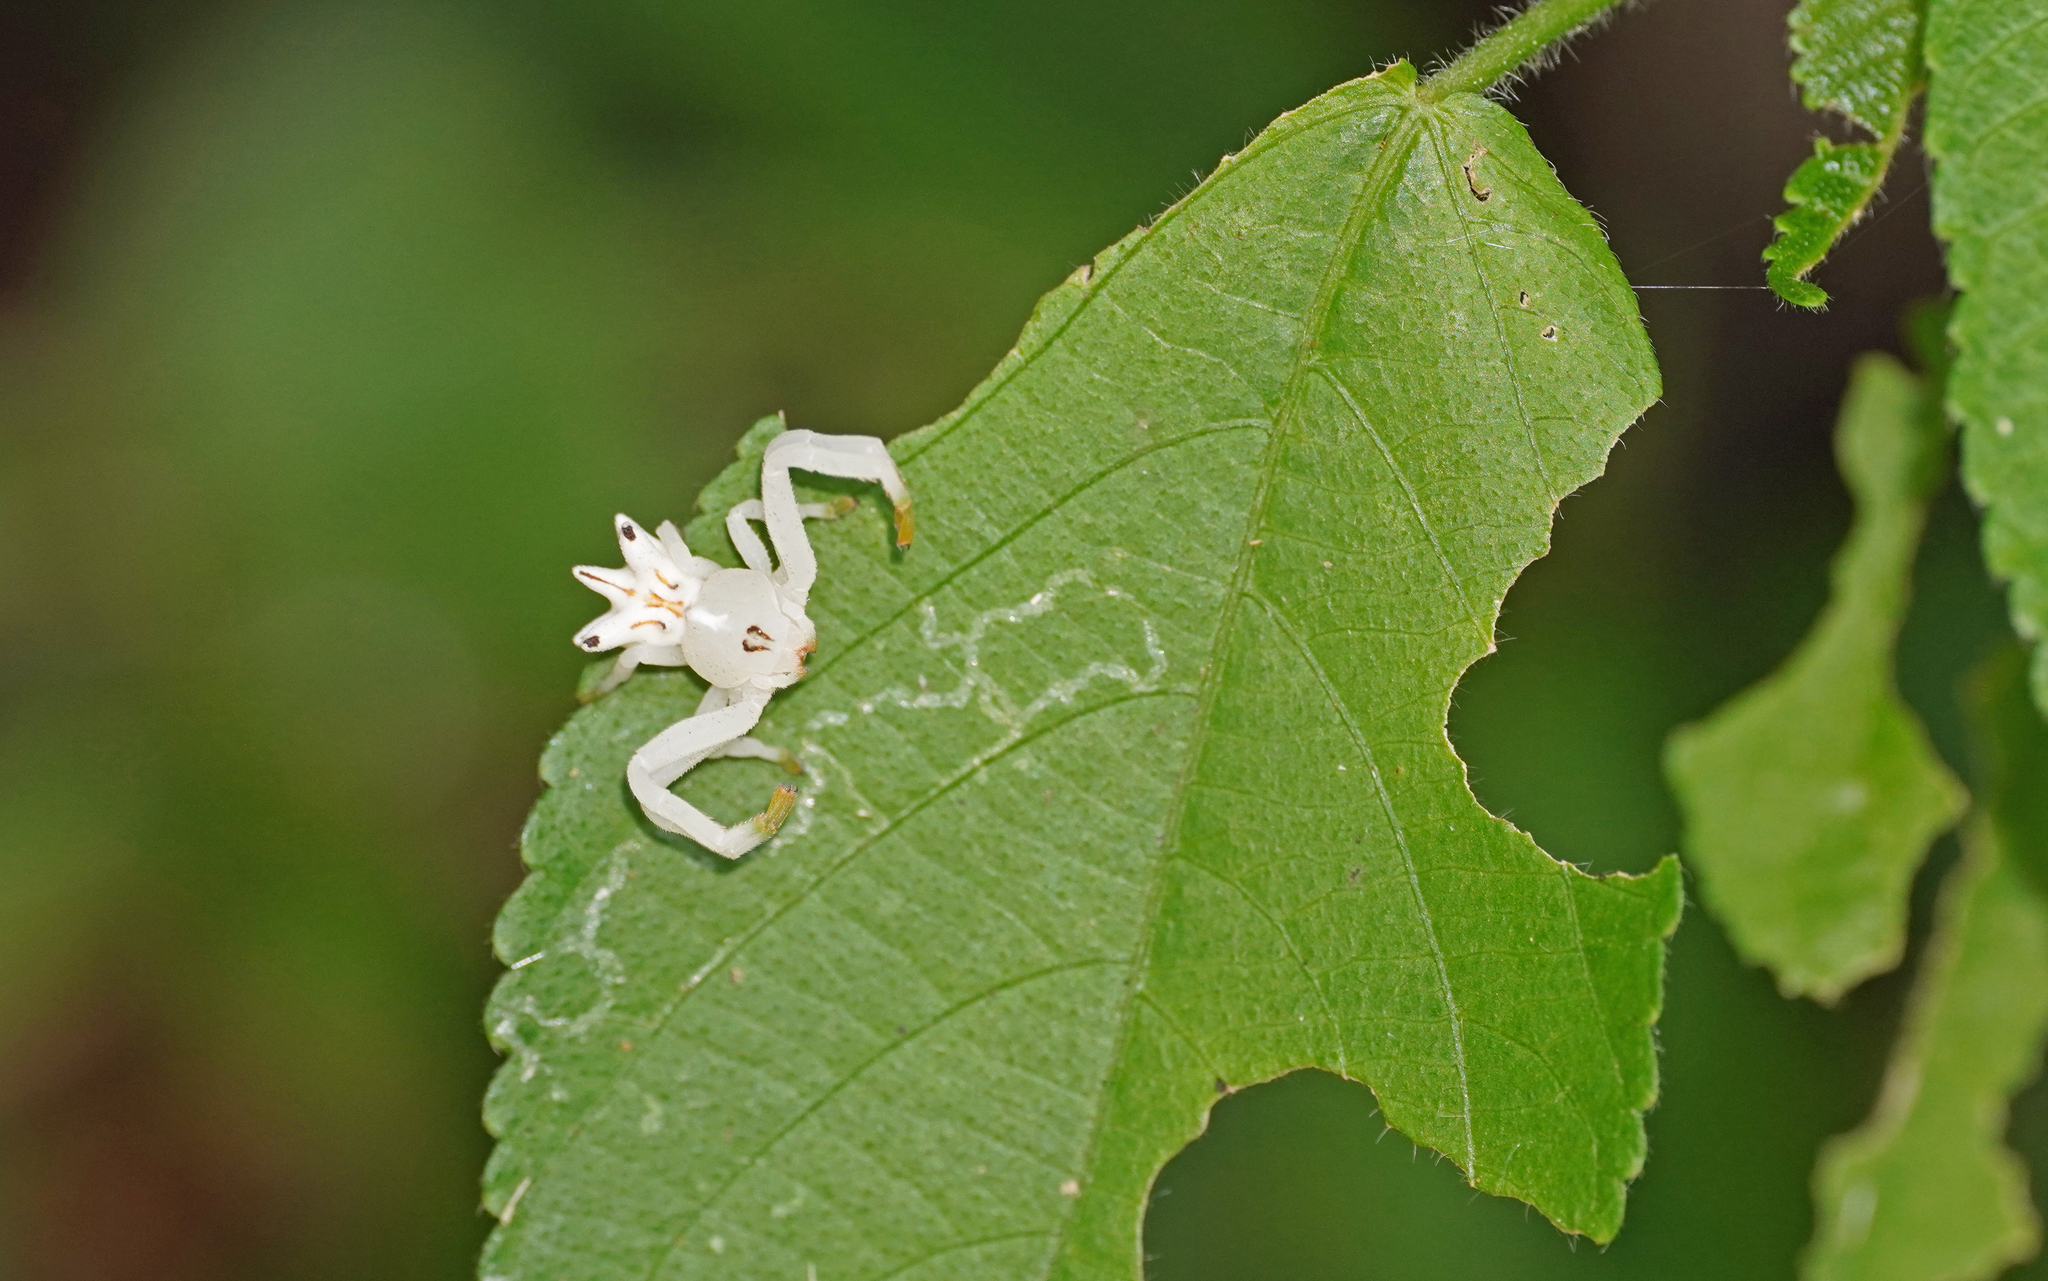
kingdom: Animalia
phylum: Arthropoda
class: Arachnida
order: Araneae
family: Thomisidae
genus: Epicadus
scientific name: Epicadus heterogaster
